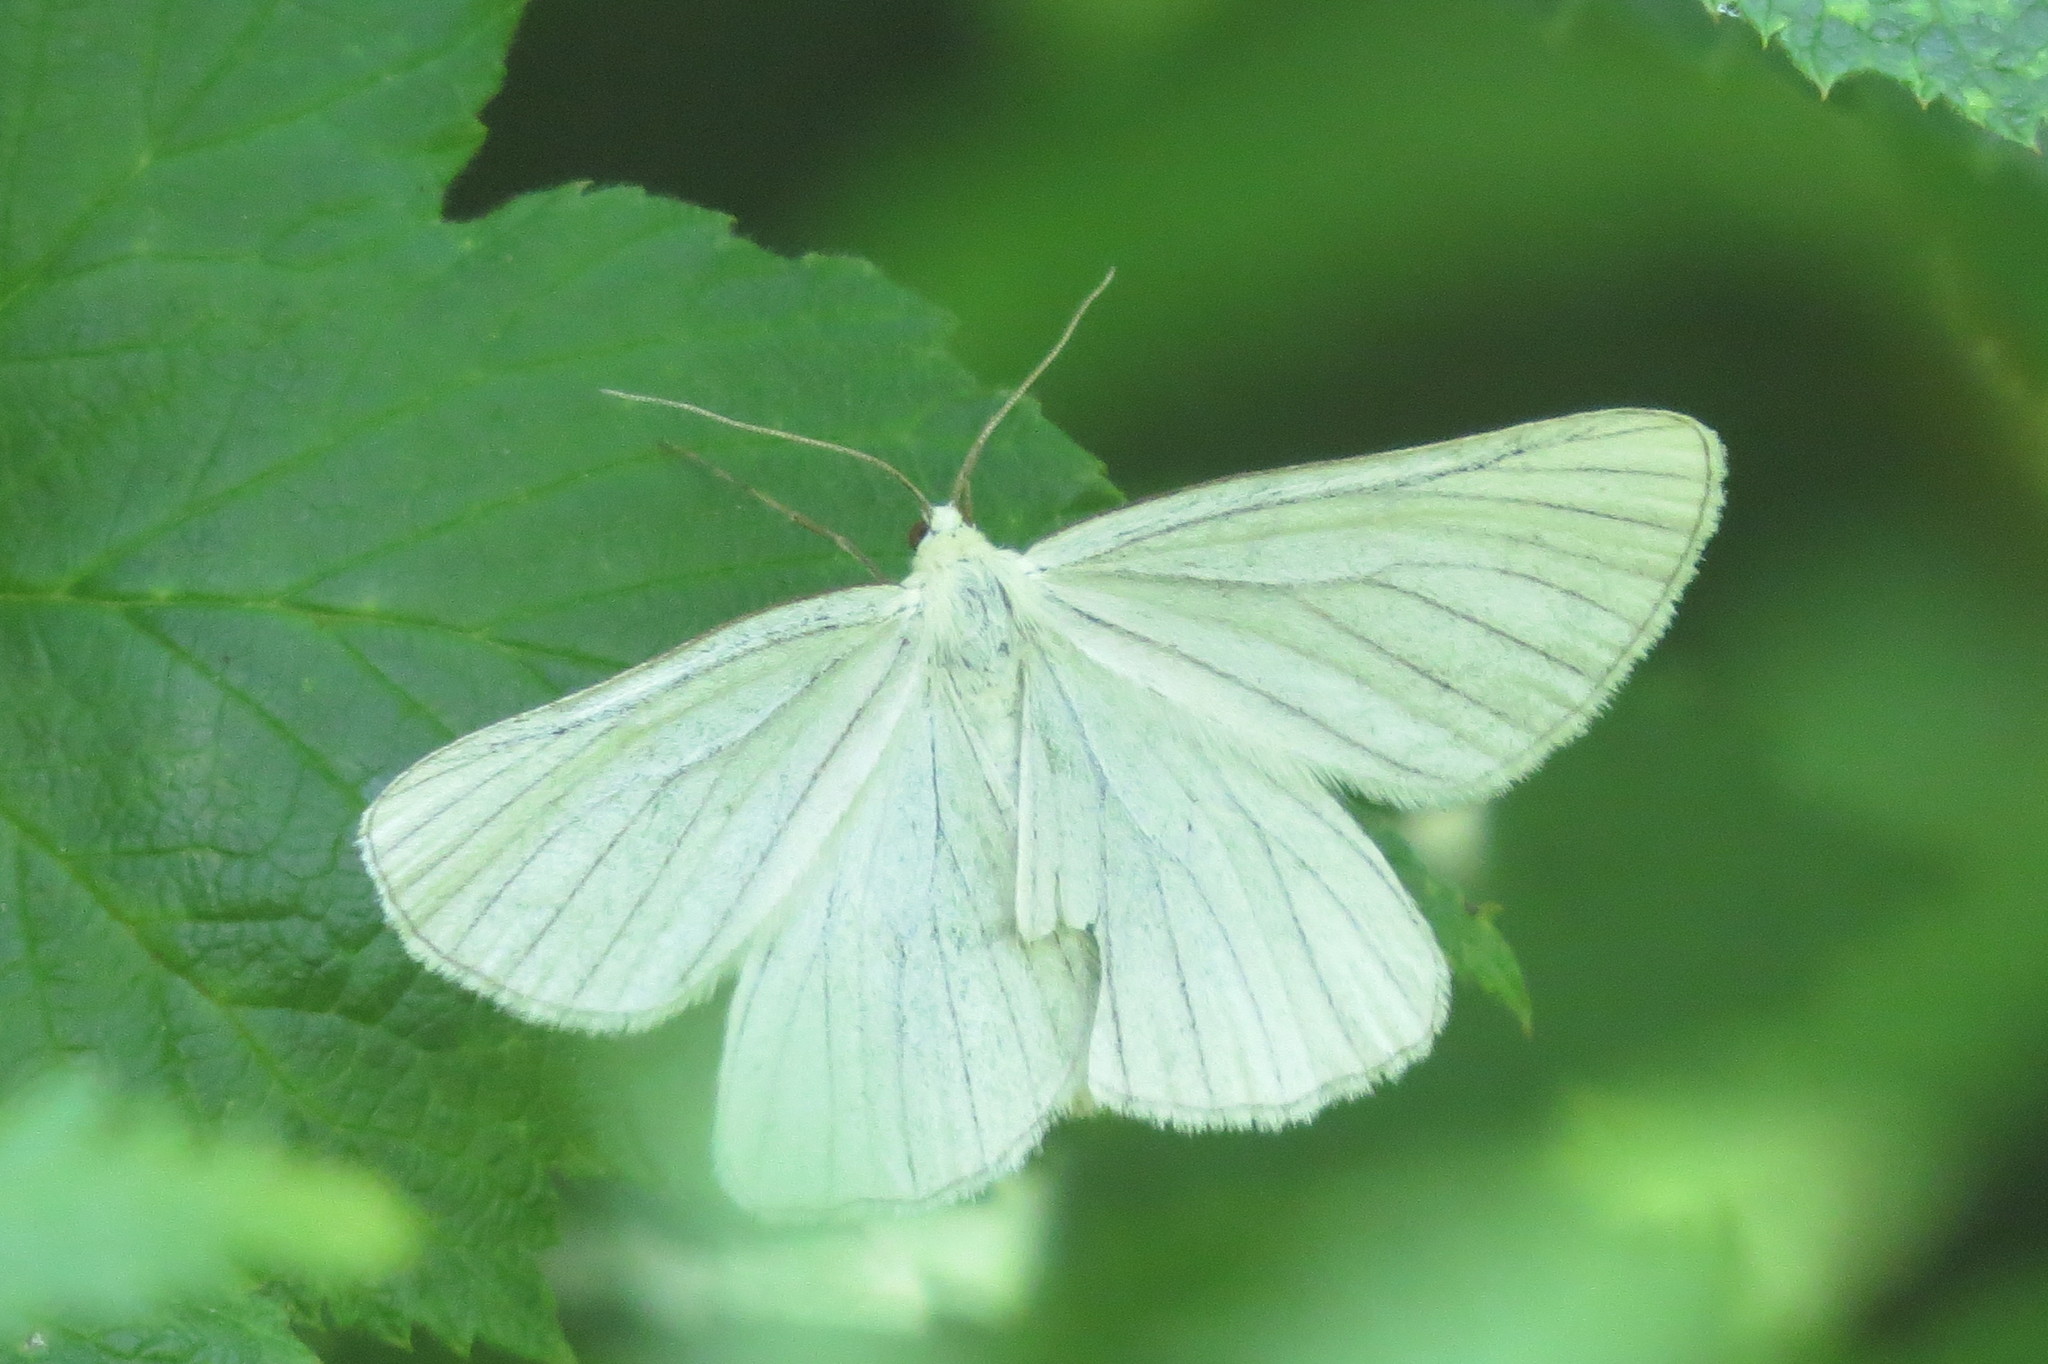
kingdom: Animalia
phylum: Arthropoda
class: Insecta
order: Lepidoptera
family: Geometridae
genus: Siona
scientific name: Siona lineata
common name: Black-veined moth
